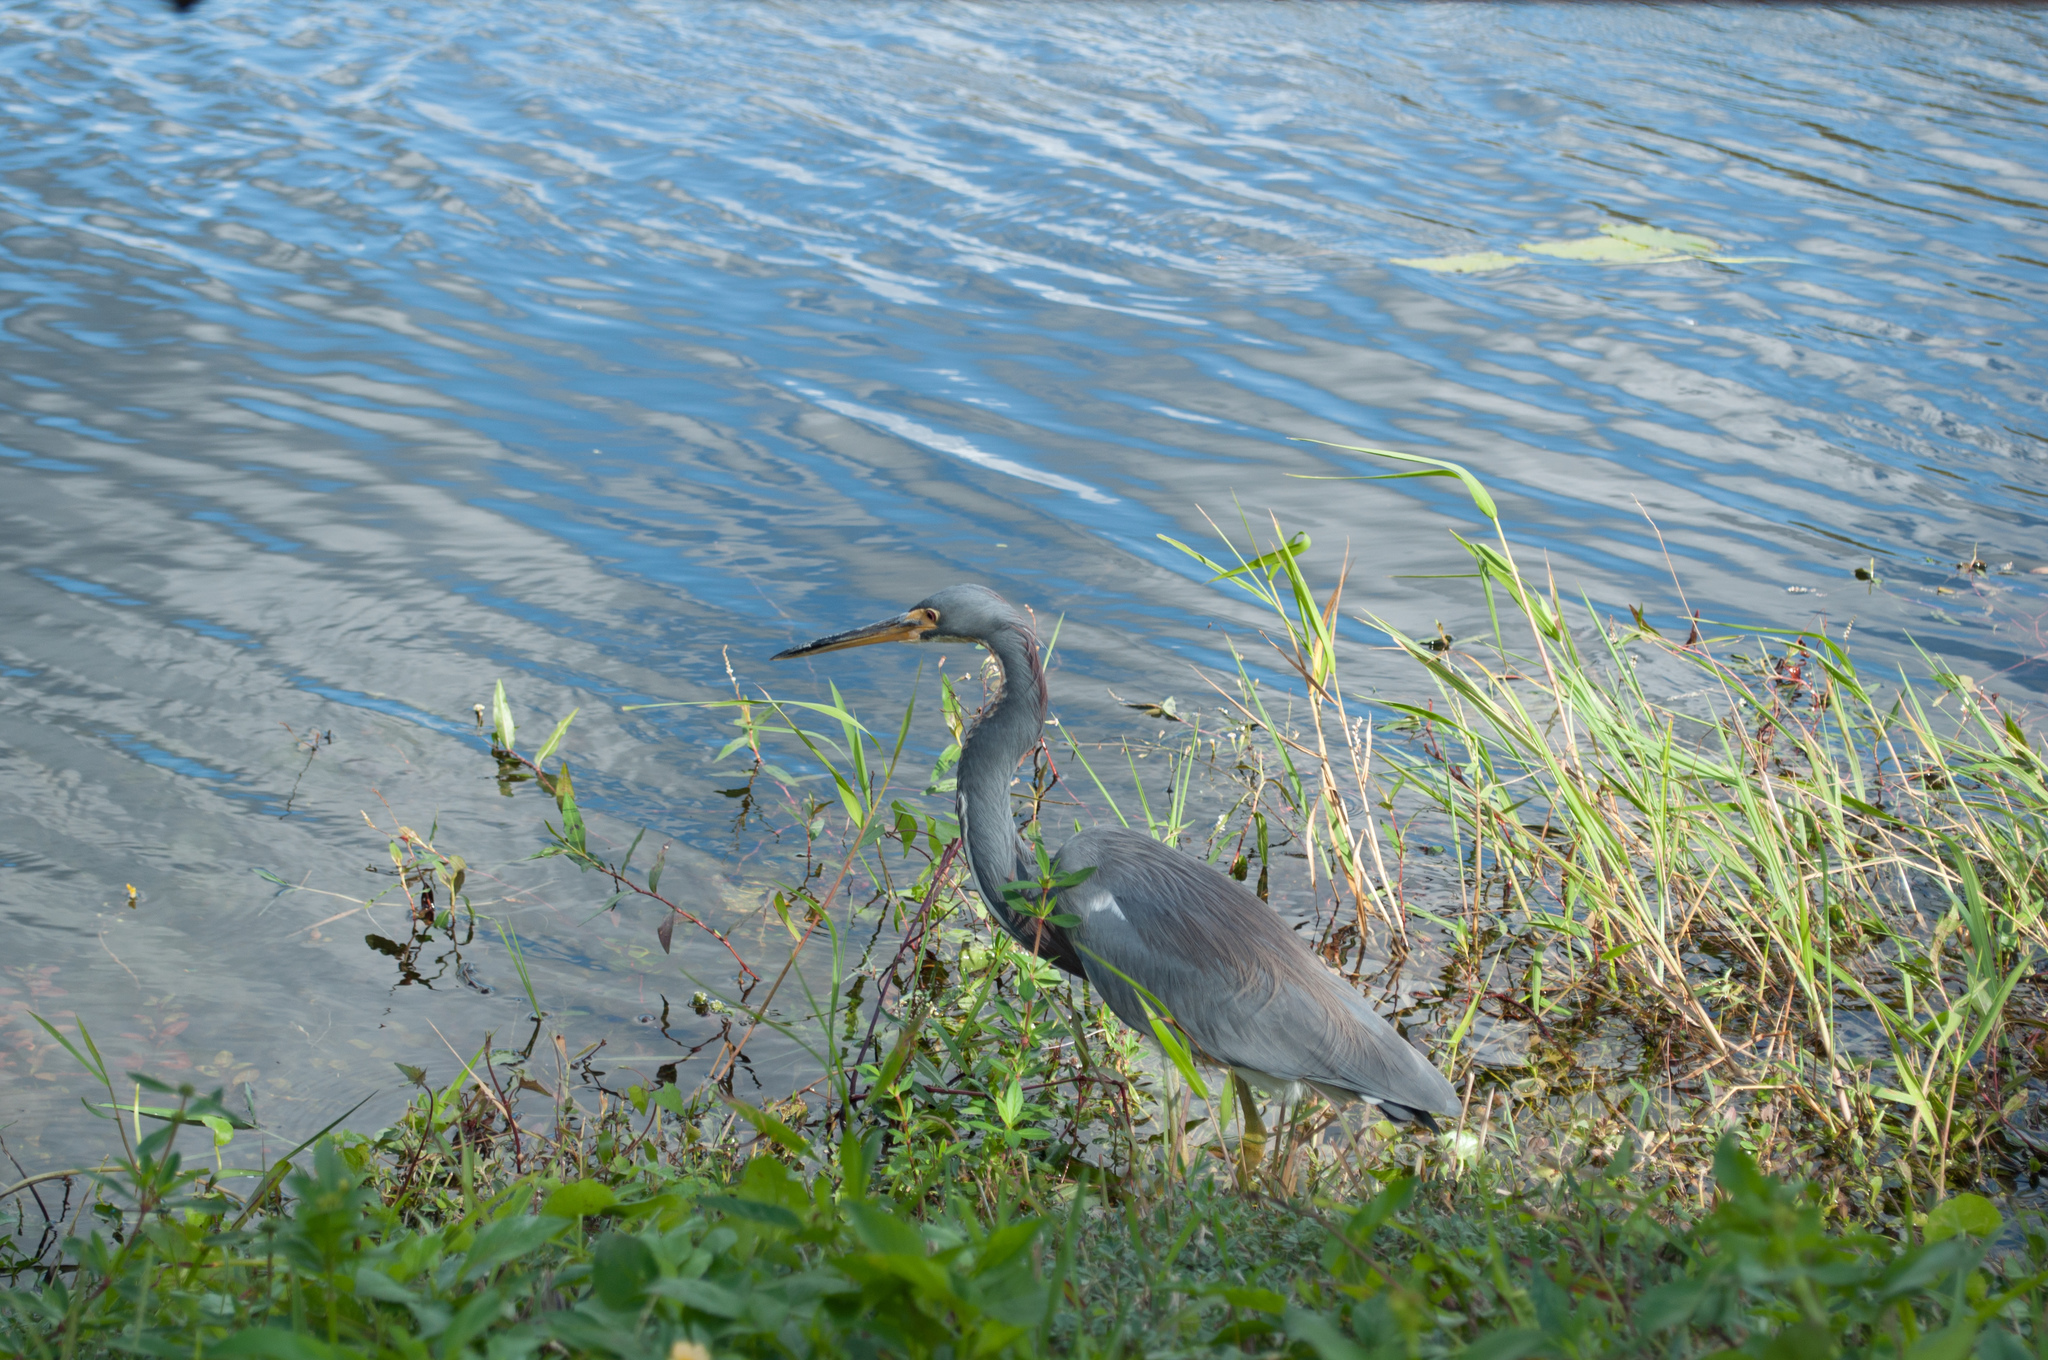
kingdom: Animalia
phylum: Chordata
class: Aves
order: Pelecaniformes
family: Ardeidae
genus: Egretta
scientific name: Egretta tricolor
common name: Tricolored heron
